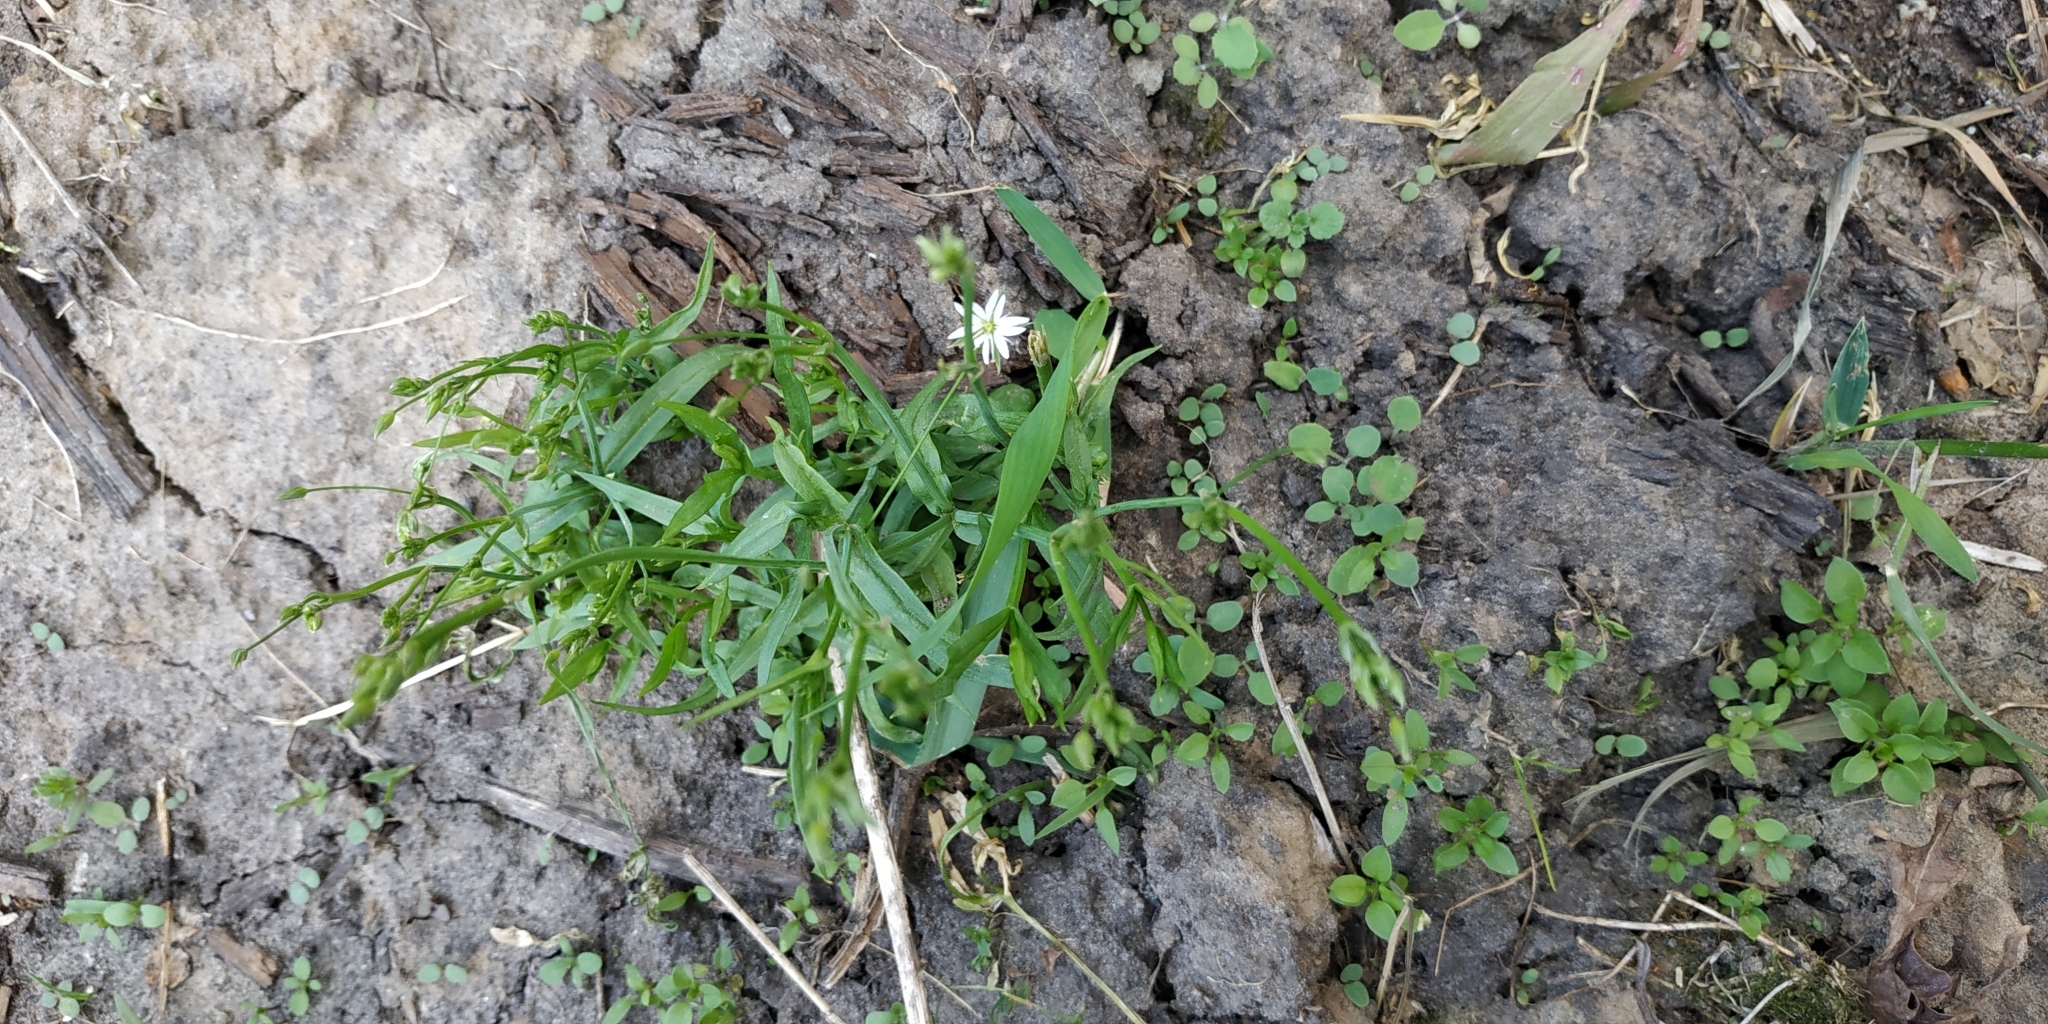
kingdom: Plantae
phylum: Tracheophyta
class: Magnoliopsida
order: Caryophyllales
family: Caryophyllaceae
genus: Stellaria
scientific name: Stellaria graminea
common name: Grass-like starwort
